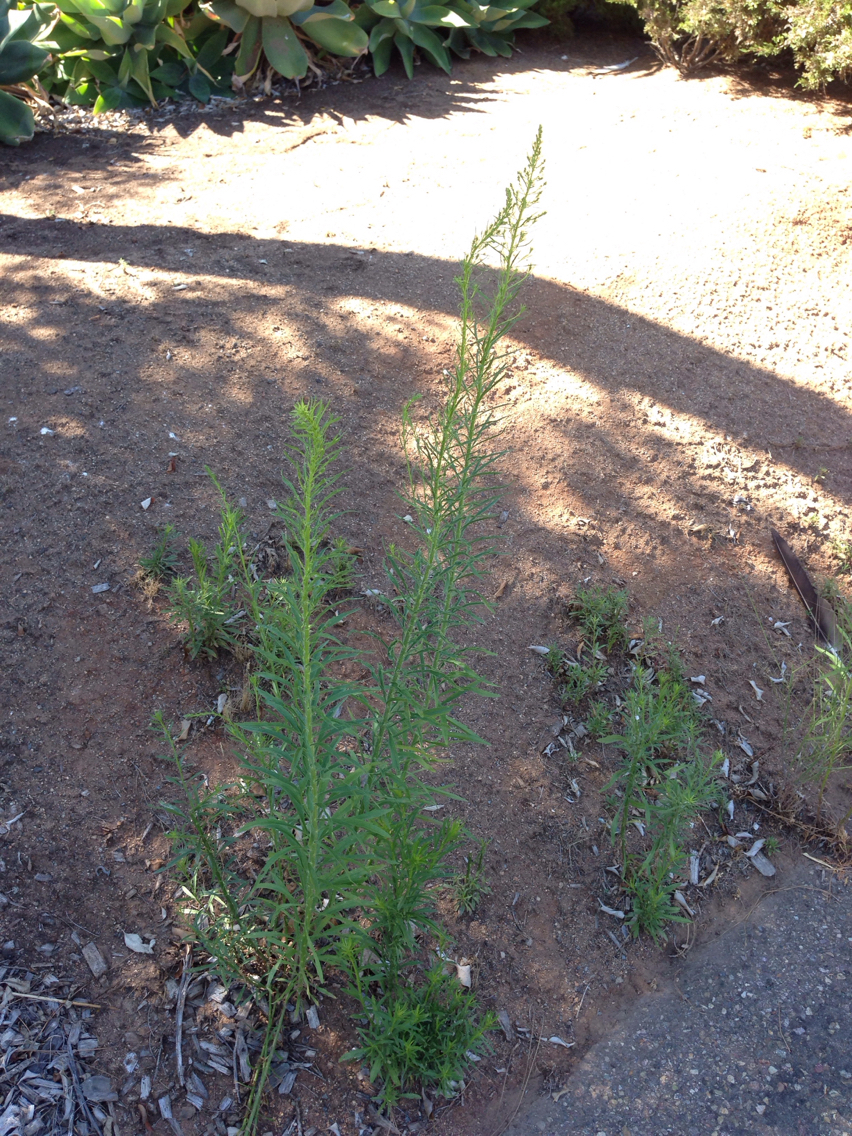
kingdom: Plantae
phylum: Tracheophyta
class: Magnoliopsida
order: Asterales
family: Asteraceae
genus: Erigeron
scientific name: Erigeron canadensis
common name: Canadian fleabane
